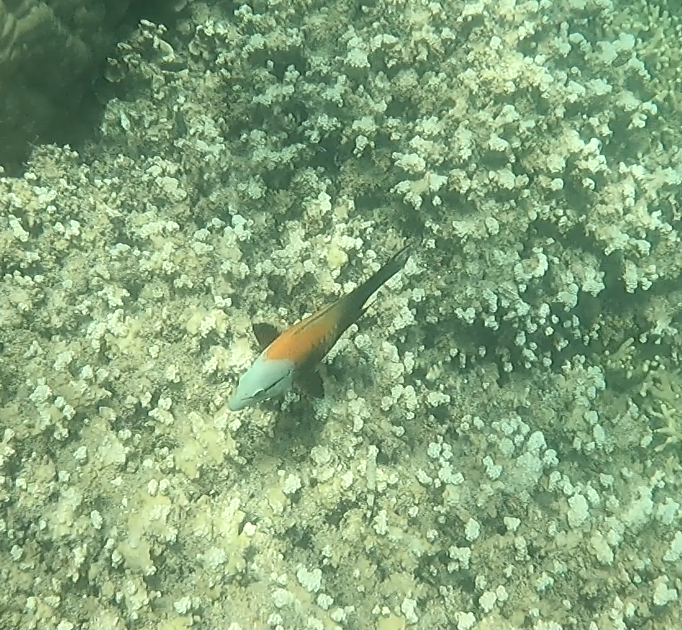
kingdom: Animalia
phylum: Chordata
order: Perciformes
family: Labridae
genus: Epibulus
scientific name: Epibulus insidiator
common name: Slingjaw wrasse
